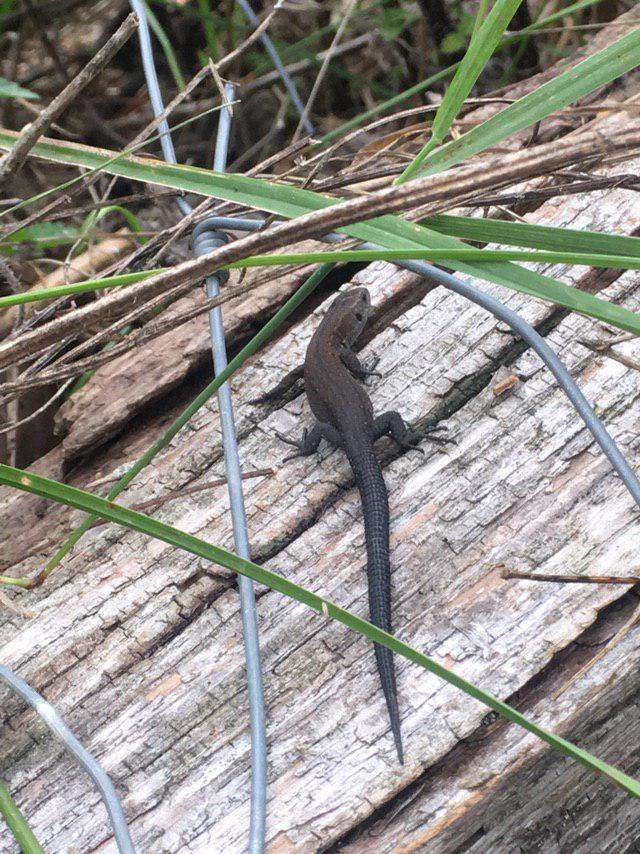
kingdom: Animalia
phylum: Chordata
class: Squamata
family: Lacertidae
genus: Zootoca
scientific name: Zootoca vivipara
